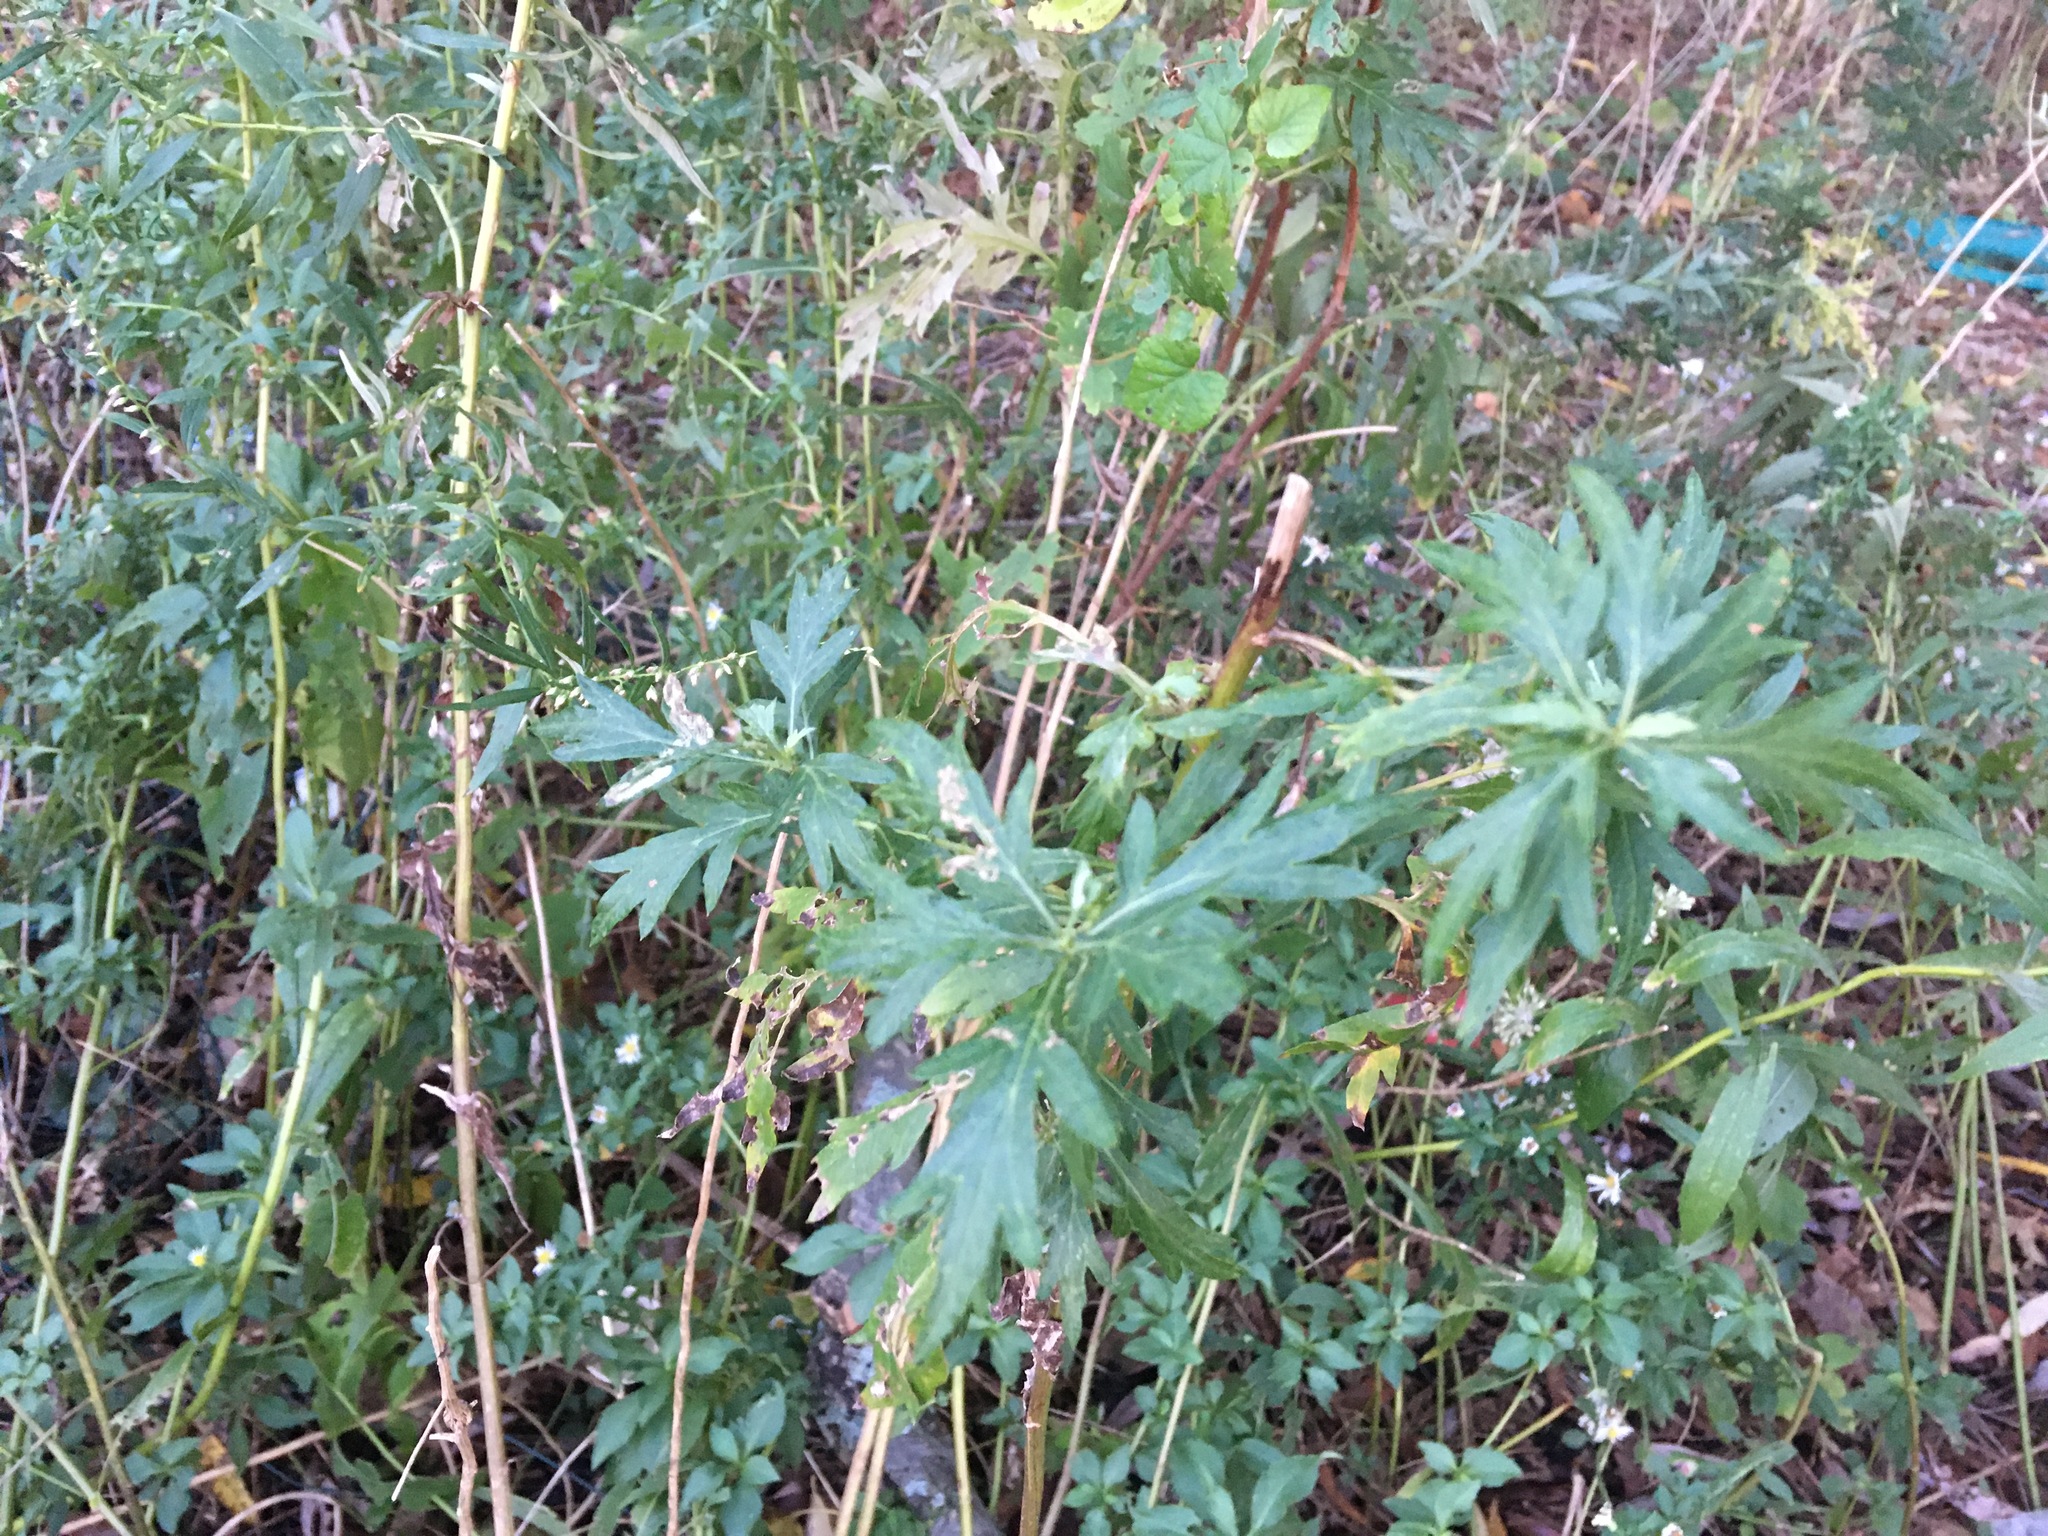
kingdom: Plantae
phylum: Tracheophyta
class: Magnoliopsida
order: Asterales
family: Asteraceae
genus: Artemisia
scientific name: Artemisia vulgaris
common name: Mugwort
